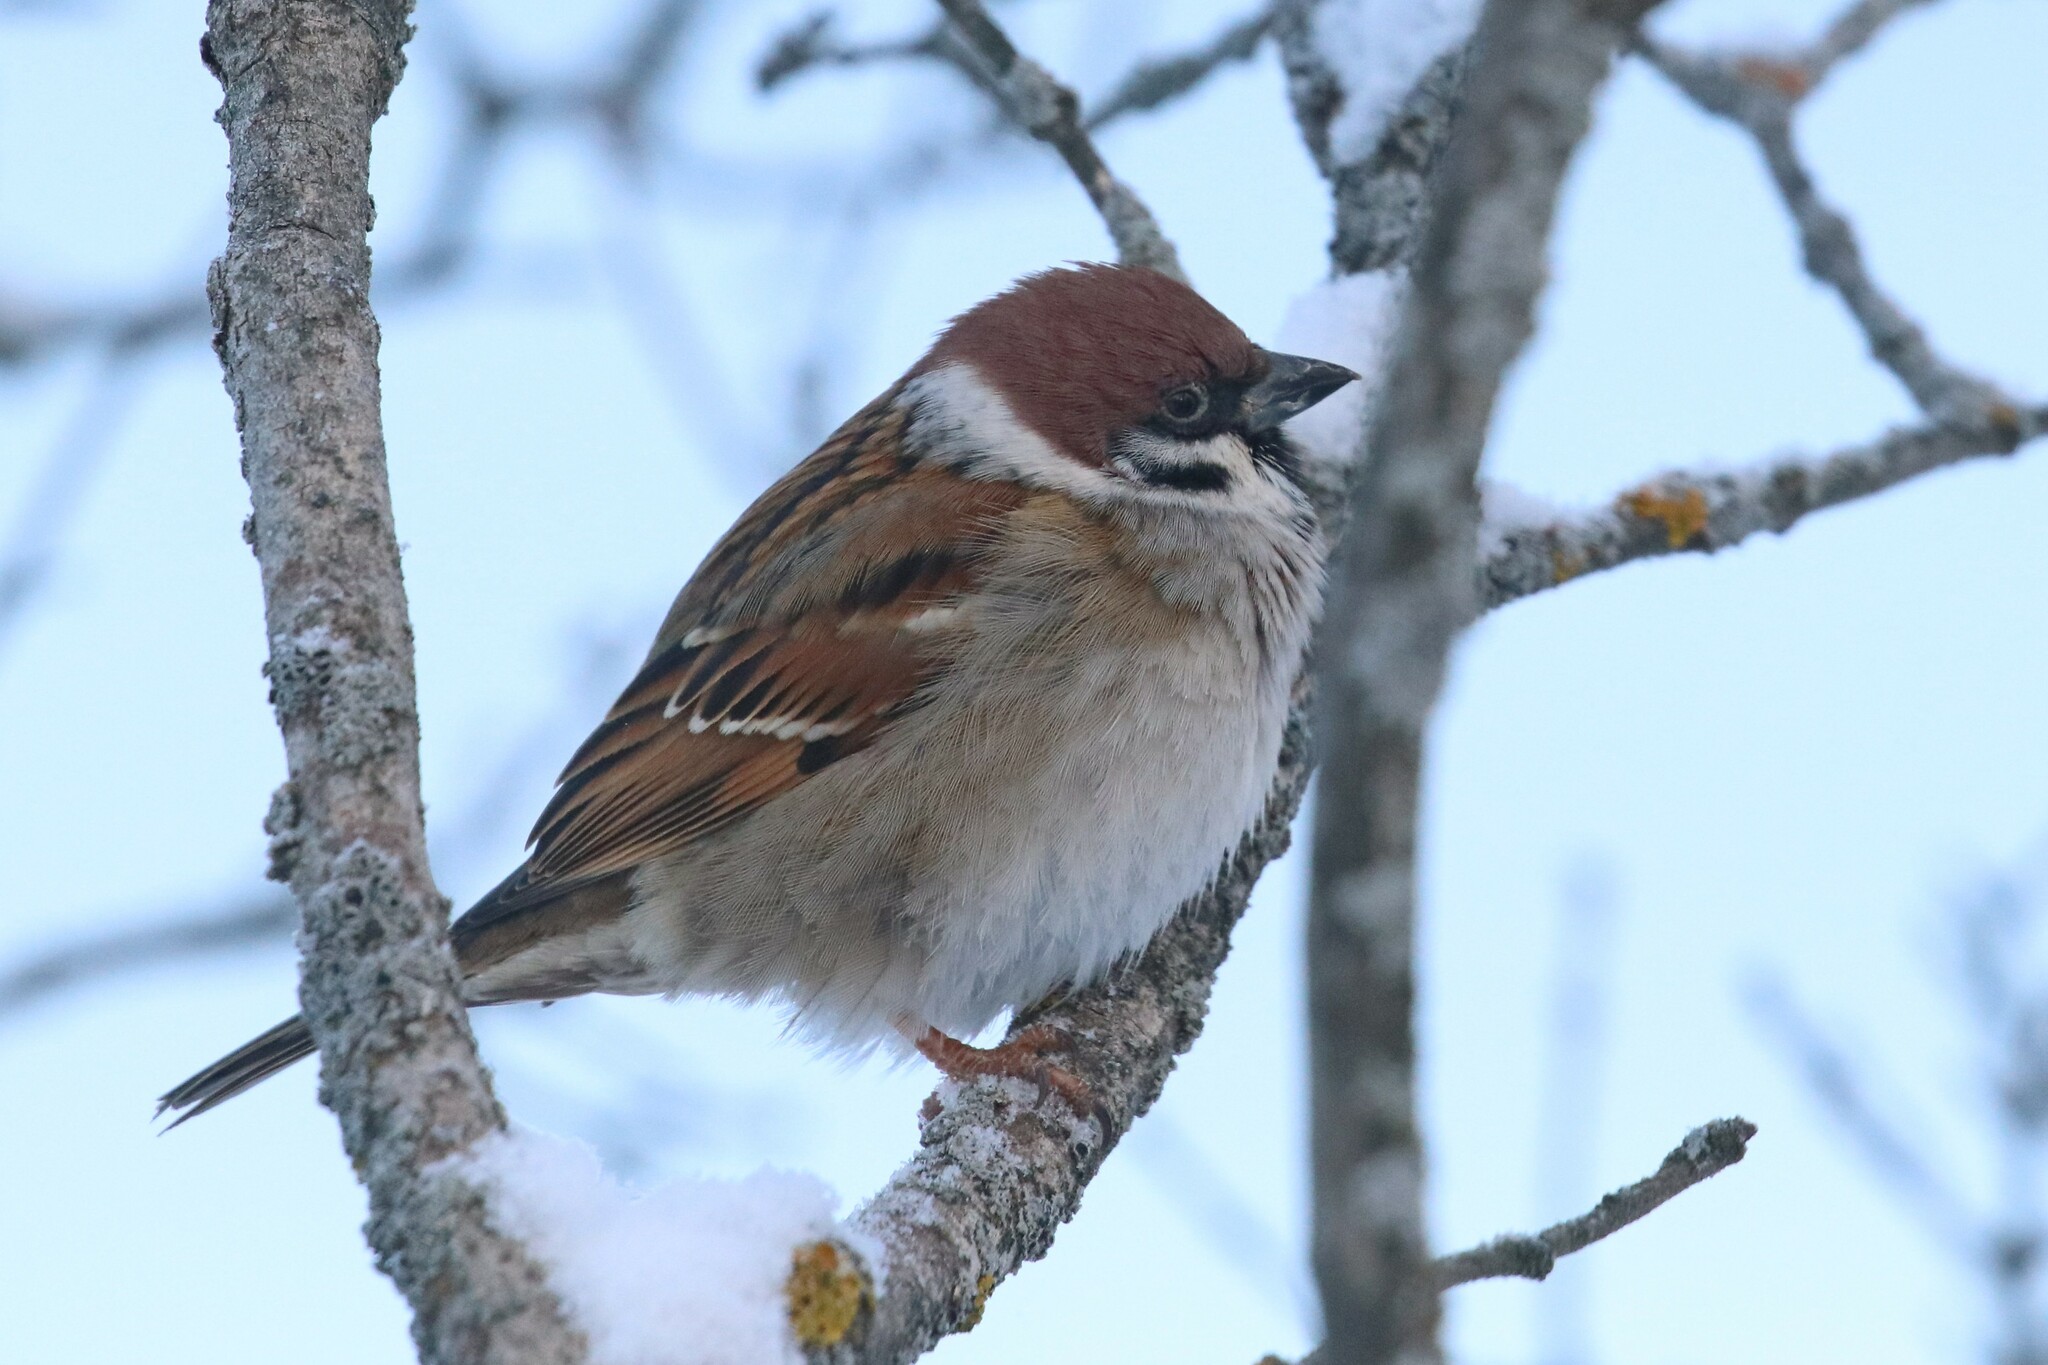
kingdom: Animalia
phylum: Chordata
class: Aves
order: Passeriformes
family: Passeridae
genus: Passer
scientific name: Passer montanus
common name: Eurasian tree sparrow
